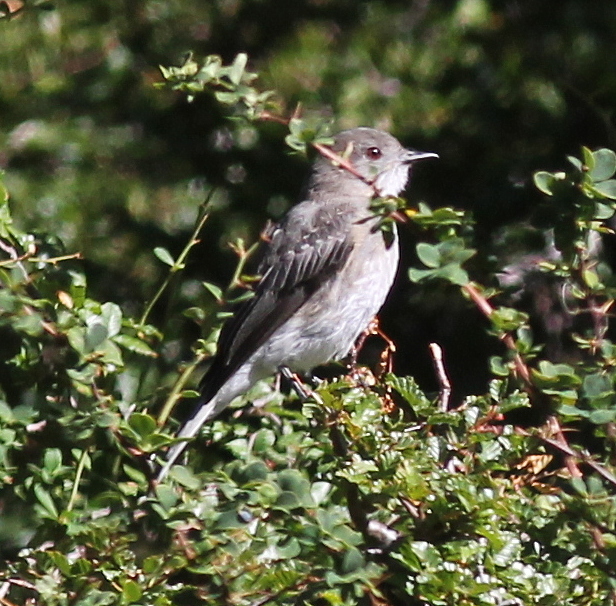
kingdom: Animalia
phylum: Chordata
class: Aves
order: Passeriformes
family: Tyrannidae
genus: Xolmis
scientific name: Xolmis pyrope
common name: Fire-eyed diucon
